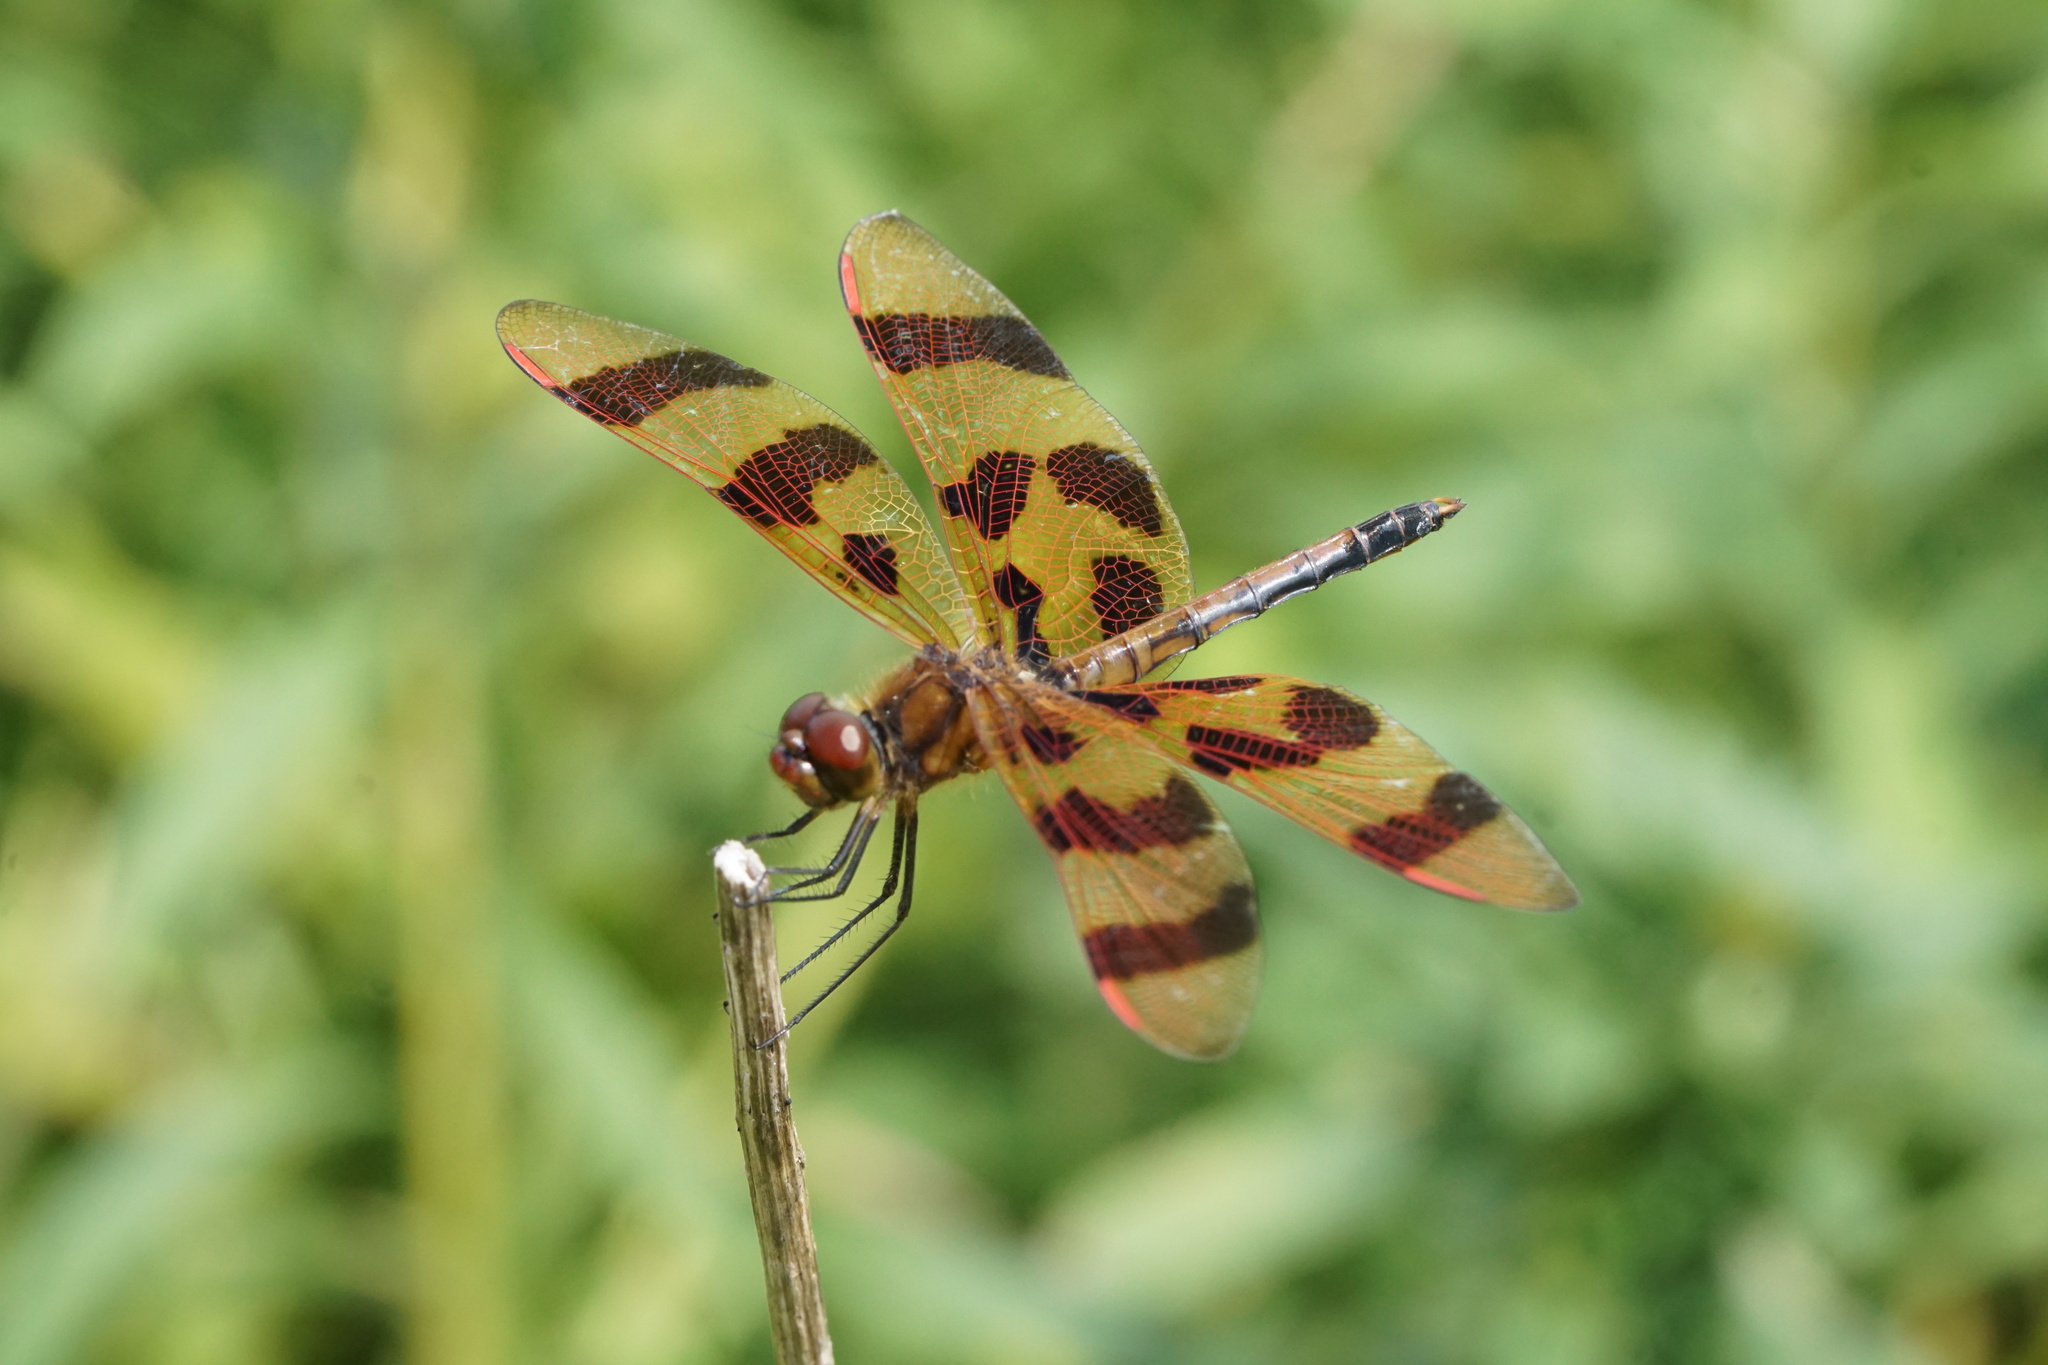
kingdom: Animalia
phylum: Arthropoda
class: Insecta
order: Odonata
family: Libellulidae
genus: Celithemis
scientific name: Celithemis eponina
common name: Halloween pennant
